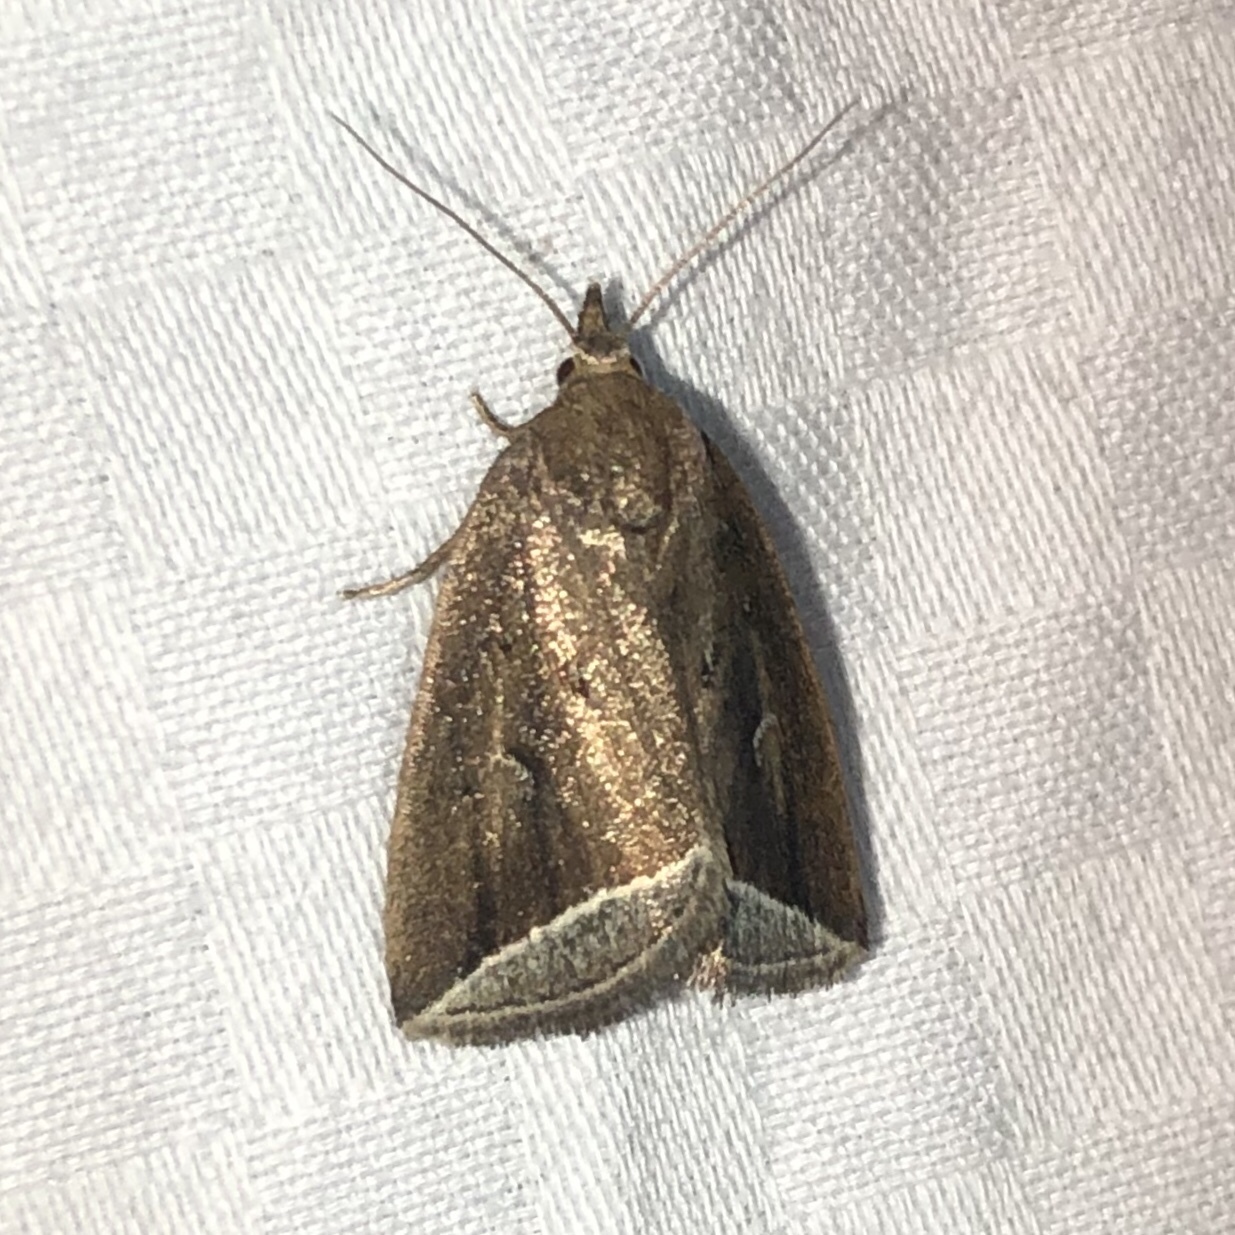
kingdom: Animalia
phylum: Arthropoda
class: Insecta
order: Lepidoptera
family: Erebidae
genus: Capis
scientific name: Capis curvata
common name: Curved halter moth
